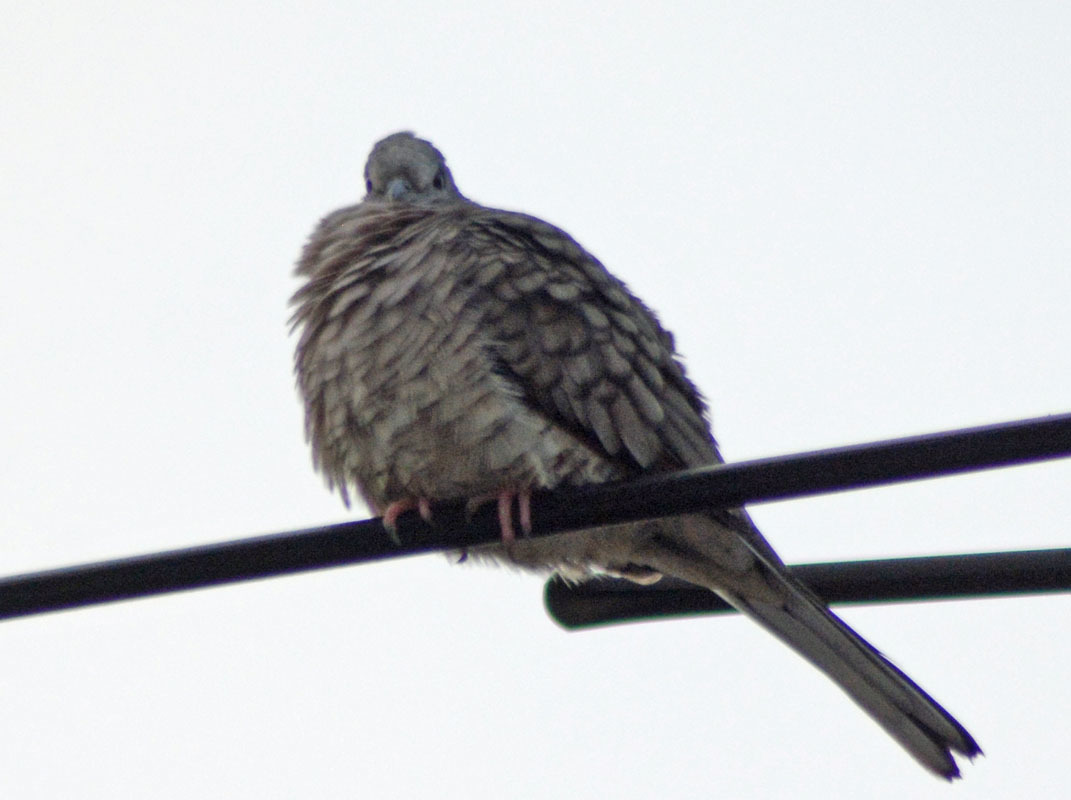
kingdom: Animalia
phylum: Chordata
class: Aves
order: Columbiformes
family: Columbidae
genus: Columbina
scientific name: Columbina inca
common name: Inca dove
